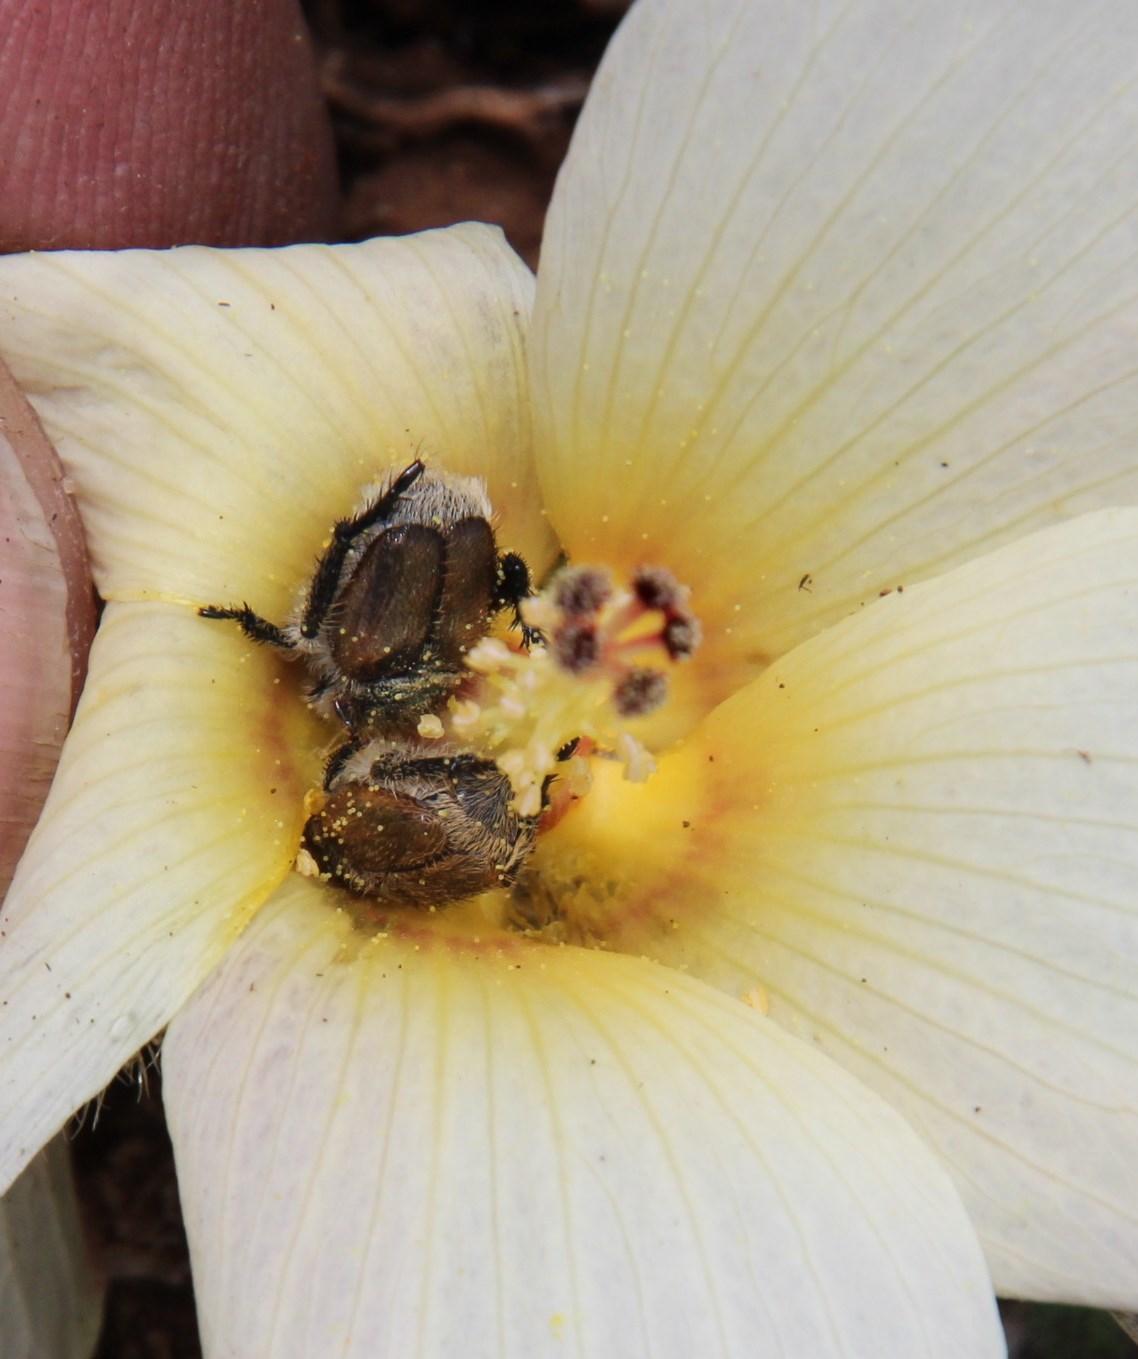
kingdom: Plantae
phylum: Tracheophyta
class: Magnoliopsida
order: Malvales
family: Malvaceae
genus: Hibiscus
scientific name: Hibiscus aethiopicus
